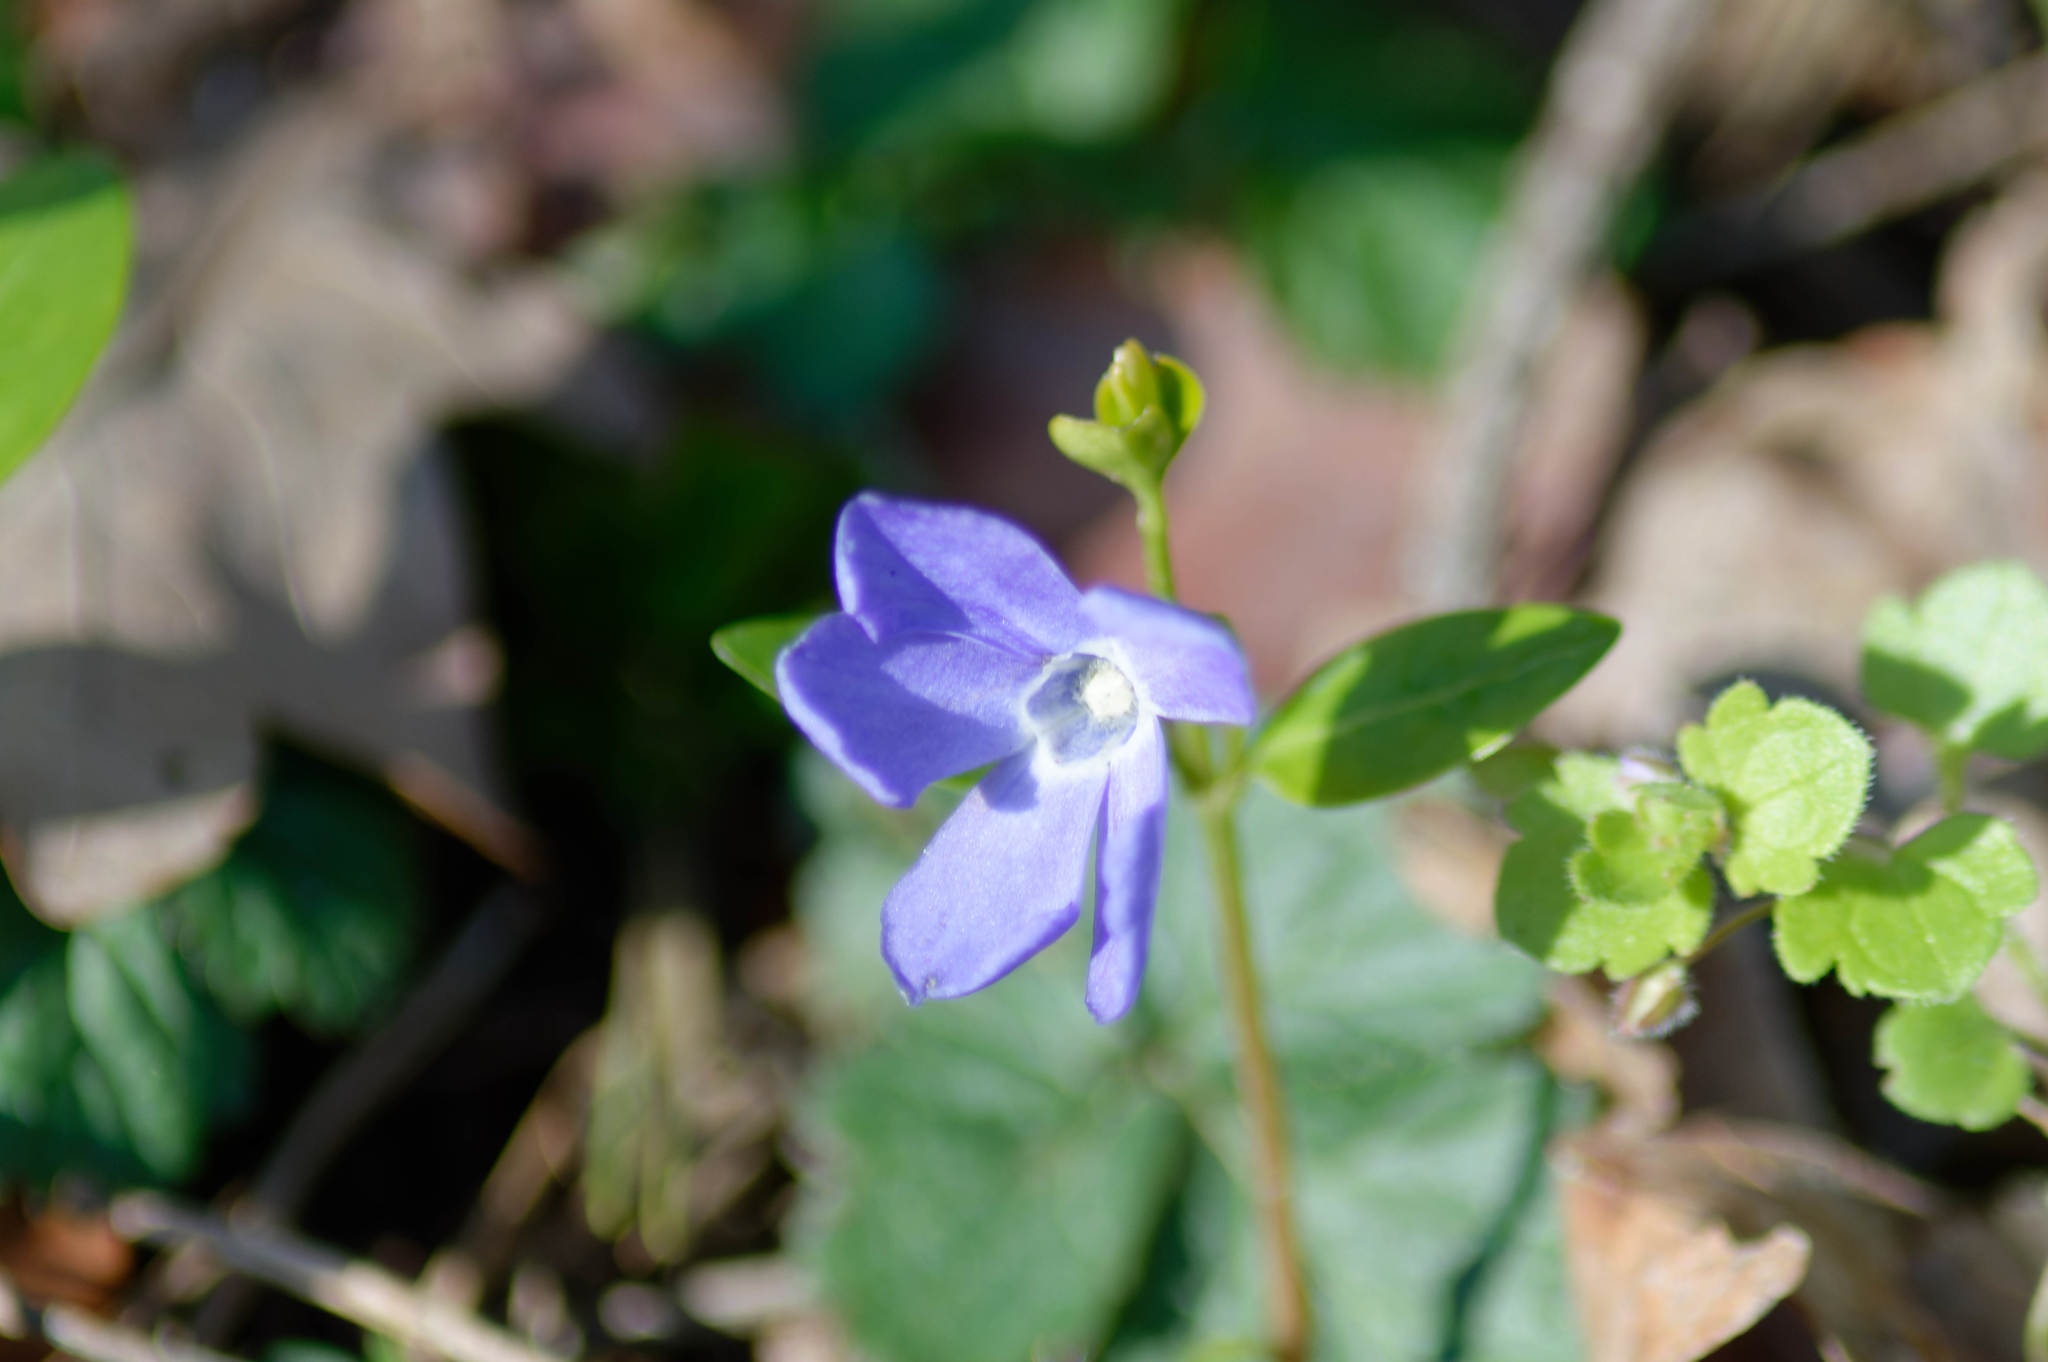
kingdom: Plantae
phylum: Tracheophyta
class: Magnoliopsida
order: Gentianales
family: Apocynaceae
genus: Vinca
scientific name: Vinca minor
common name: Lesser periwinkle
